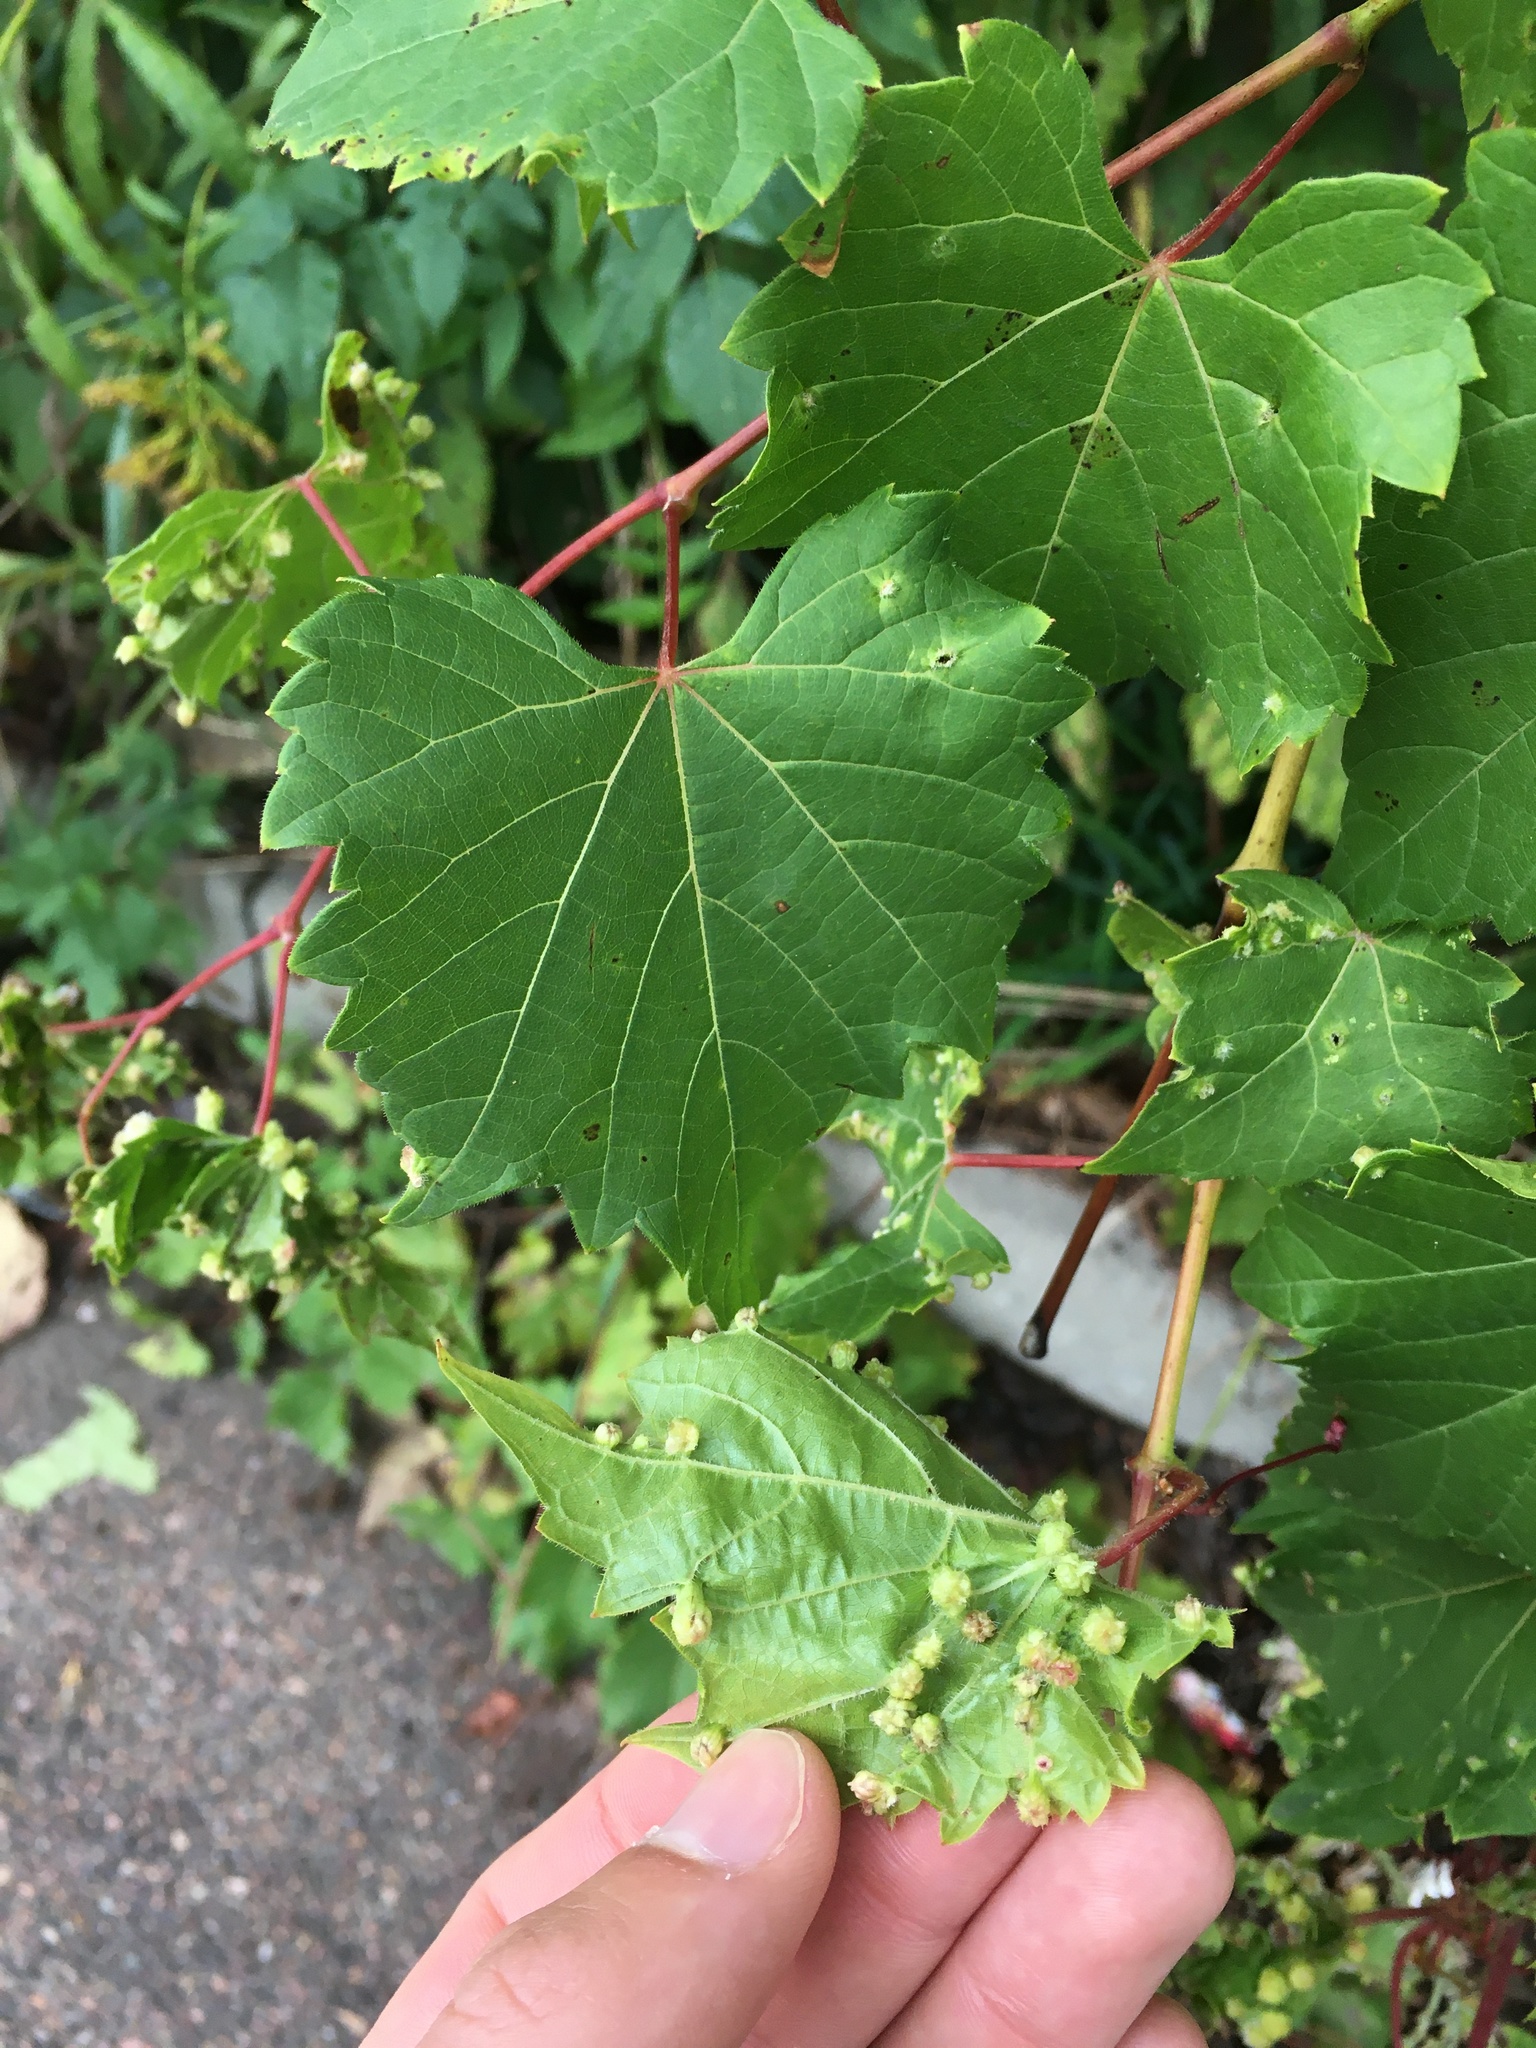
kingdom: Animalia
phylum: Arthropoda
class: Insecta
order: Hemiptera
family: Phylloxeridae
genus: Daktulosphaira
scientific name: Daktulosphaira vitifoliae
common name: Grape phylloxera
